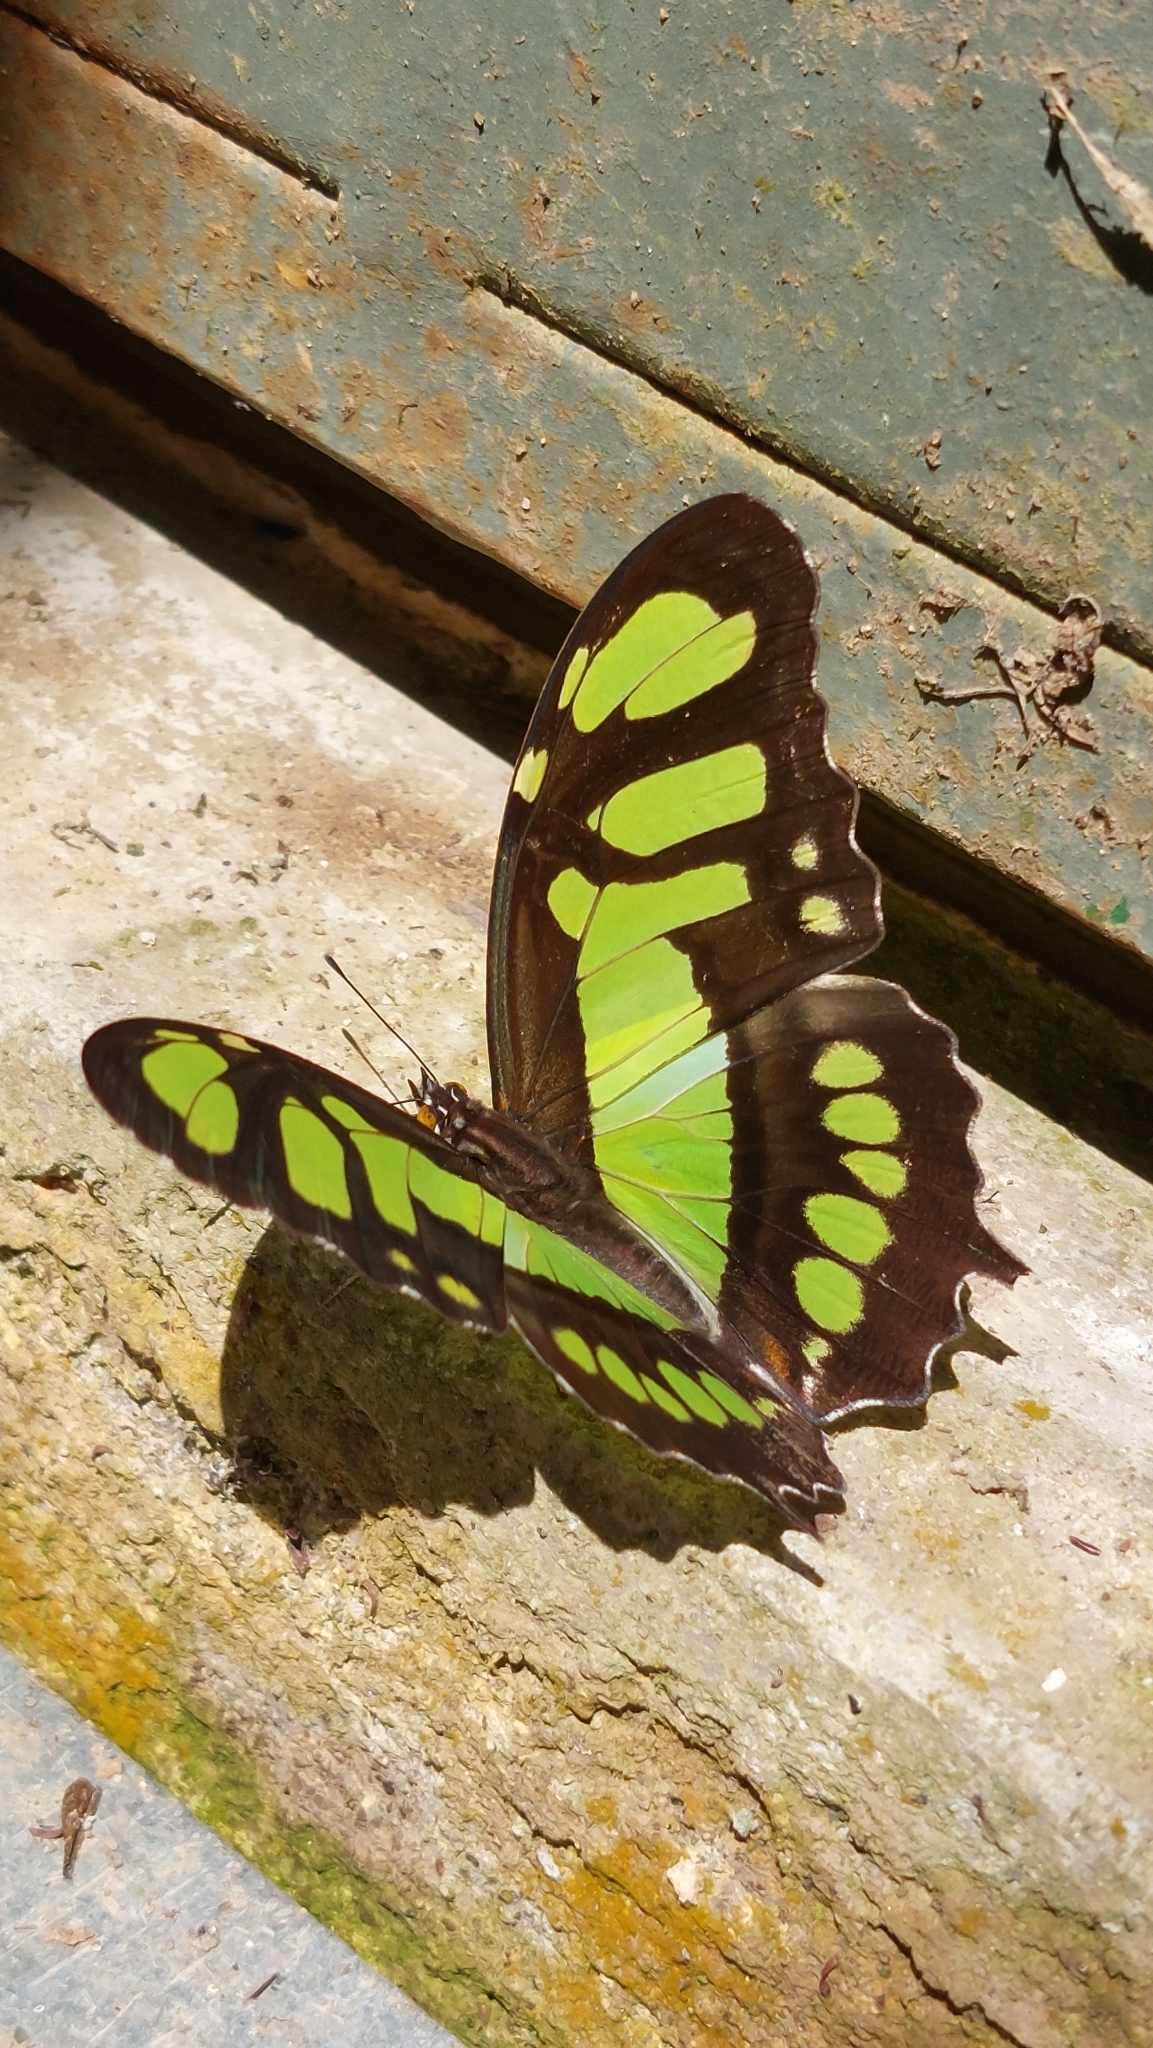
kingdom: Animalia
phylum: Arthropoda
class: Insecta
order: Lepidoptera
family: Nymphalidae
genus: Siproeta
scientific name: Siproeta stelenes
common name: Malachite
